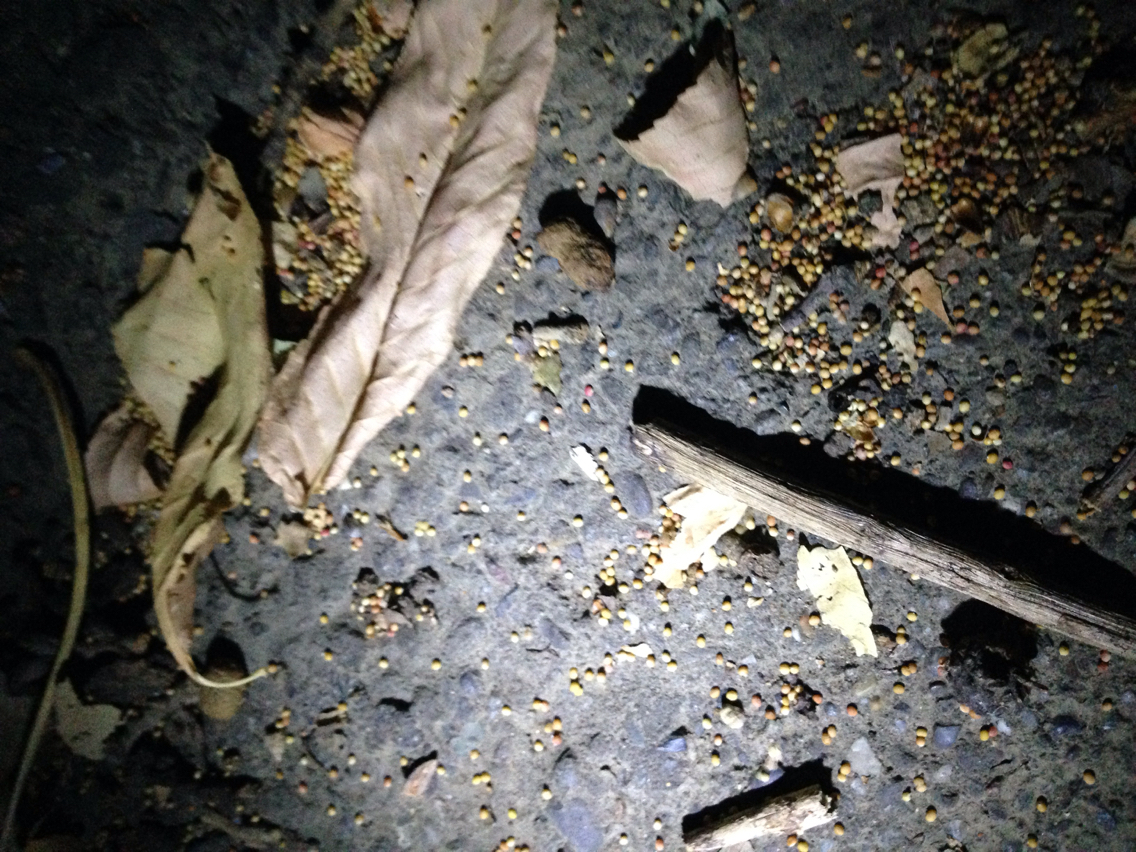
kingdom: Animalia
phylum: Arthropoda
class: Insecta
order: Hymenoptera
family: Cynipidae
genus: Neuroterus
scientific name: Neuroterus saltarius
